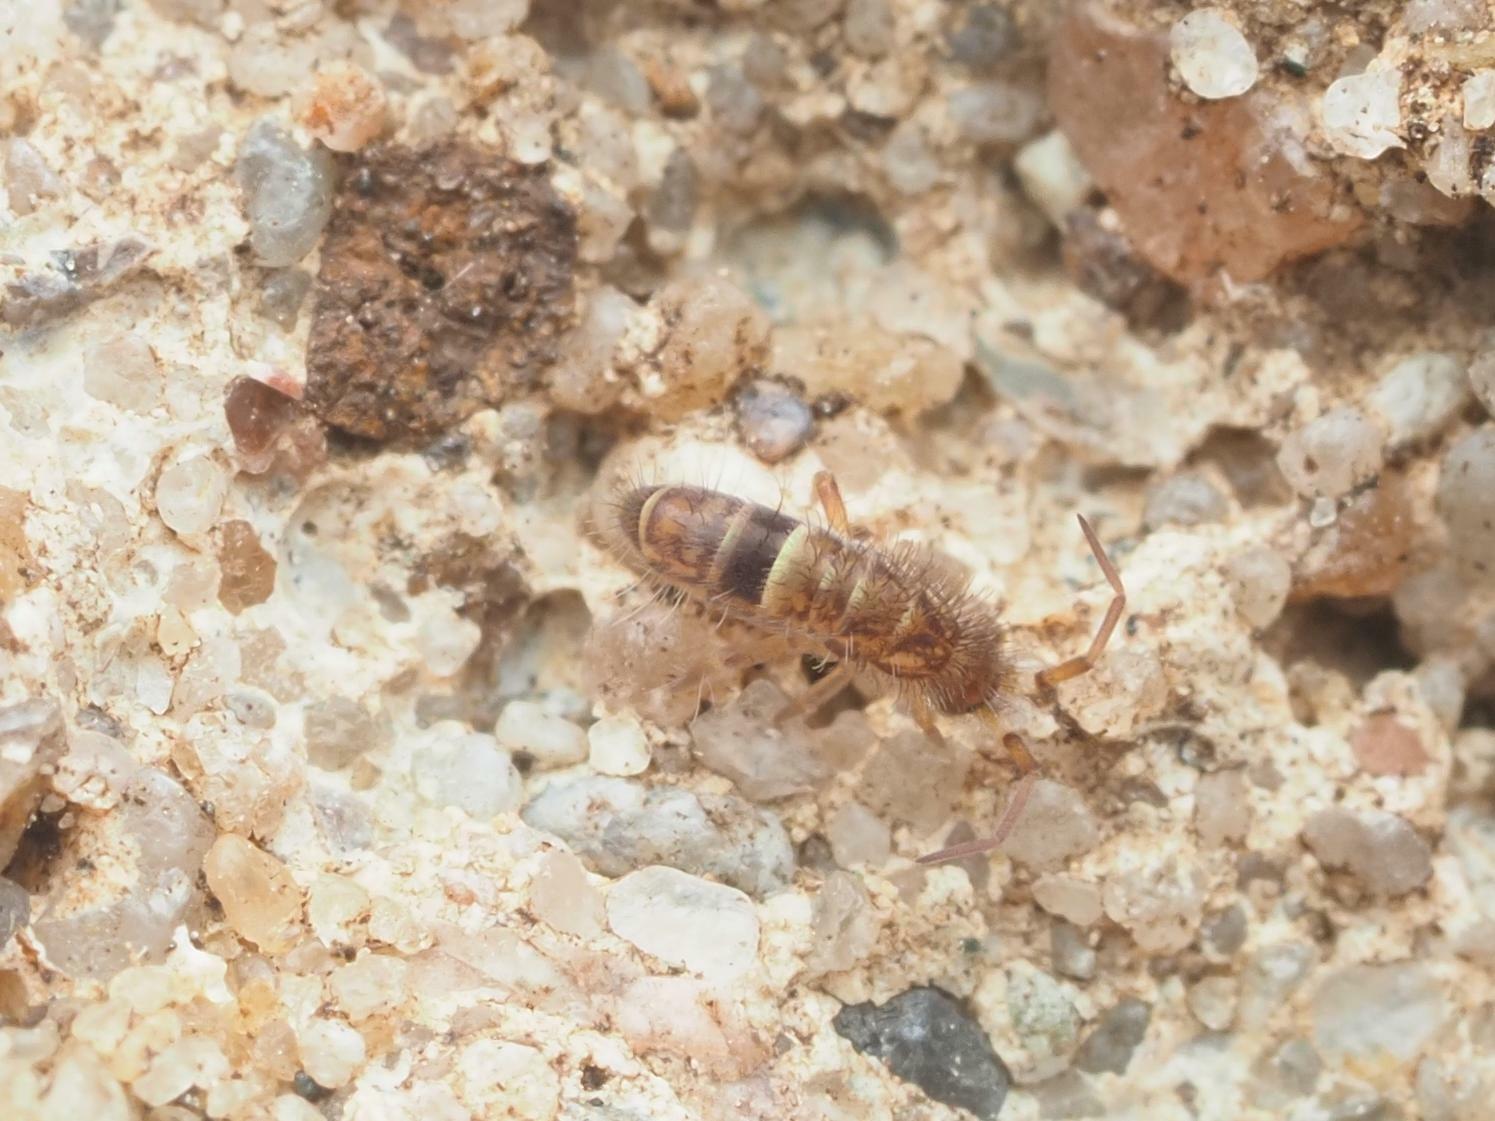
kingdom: Animalia
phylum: Arthropoda
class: Collembola
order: Entomobryomorpha
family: Orchesellidae
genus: Orchesella
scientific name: Orchesella cincta
